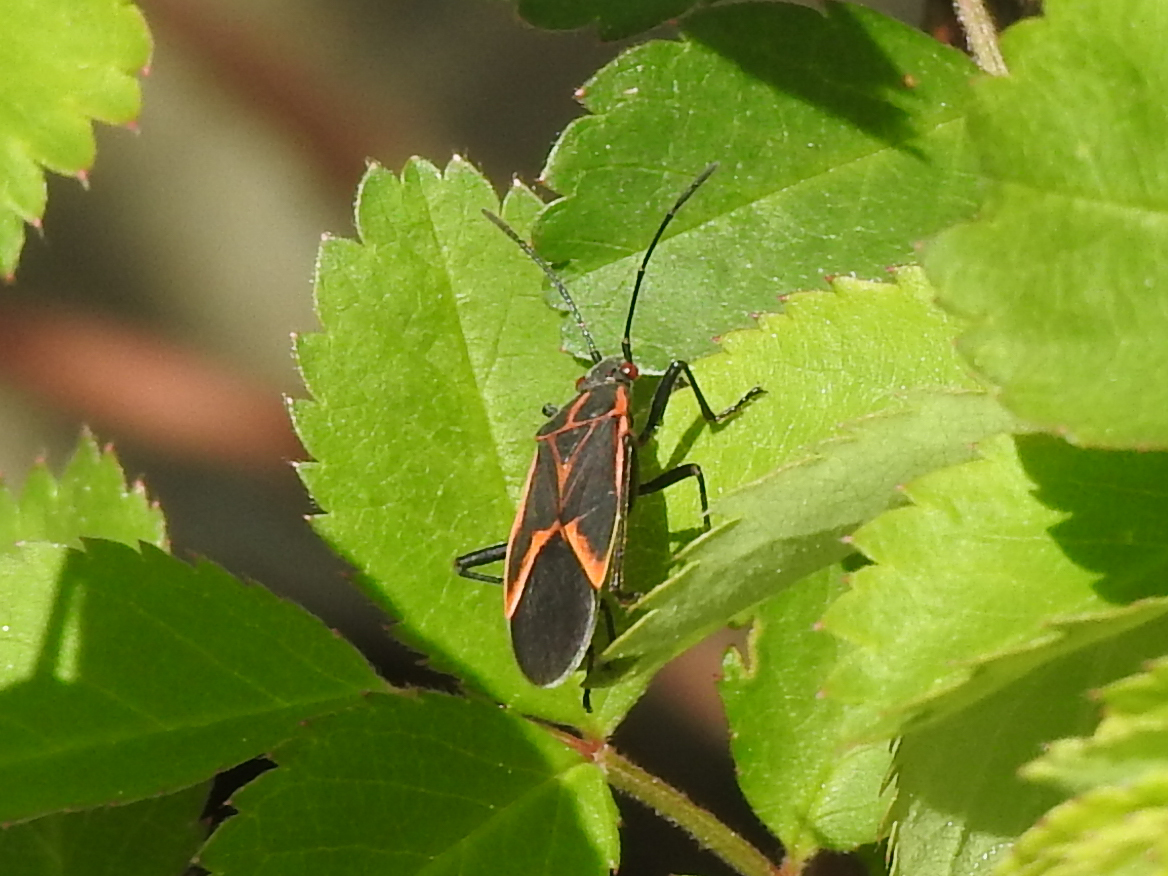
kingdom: Animalia
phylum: Arthropoda
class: Insecta
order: Hemiptera
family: Rhopalidae
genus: Boisea
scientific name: Boisea trivittata
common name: Boxelder bug
